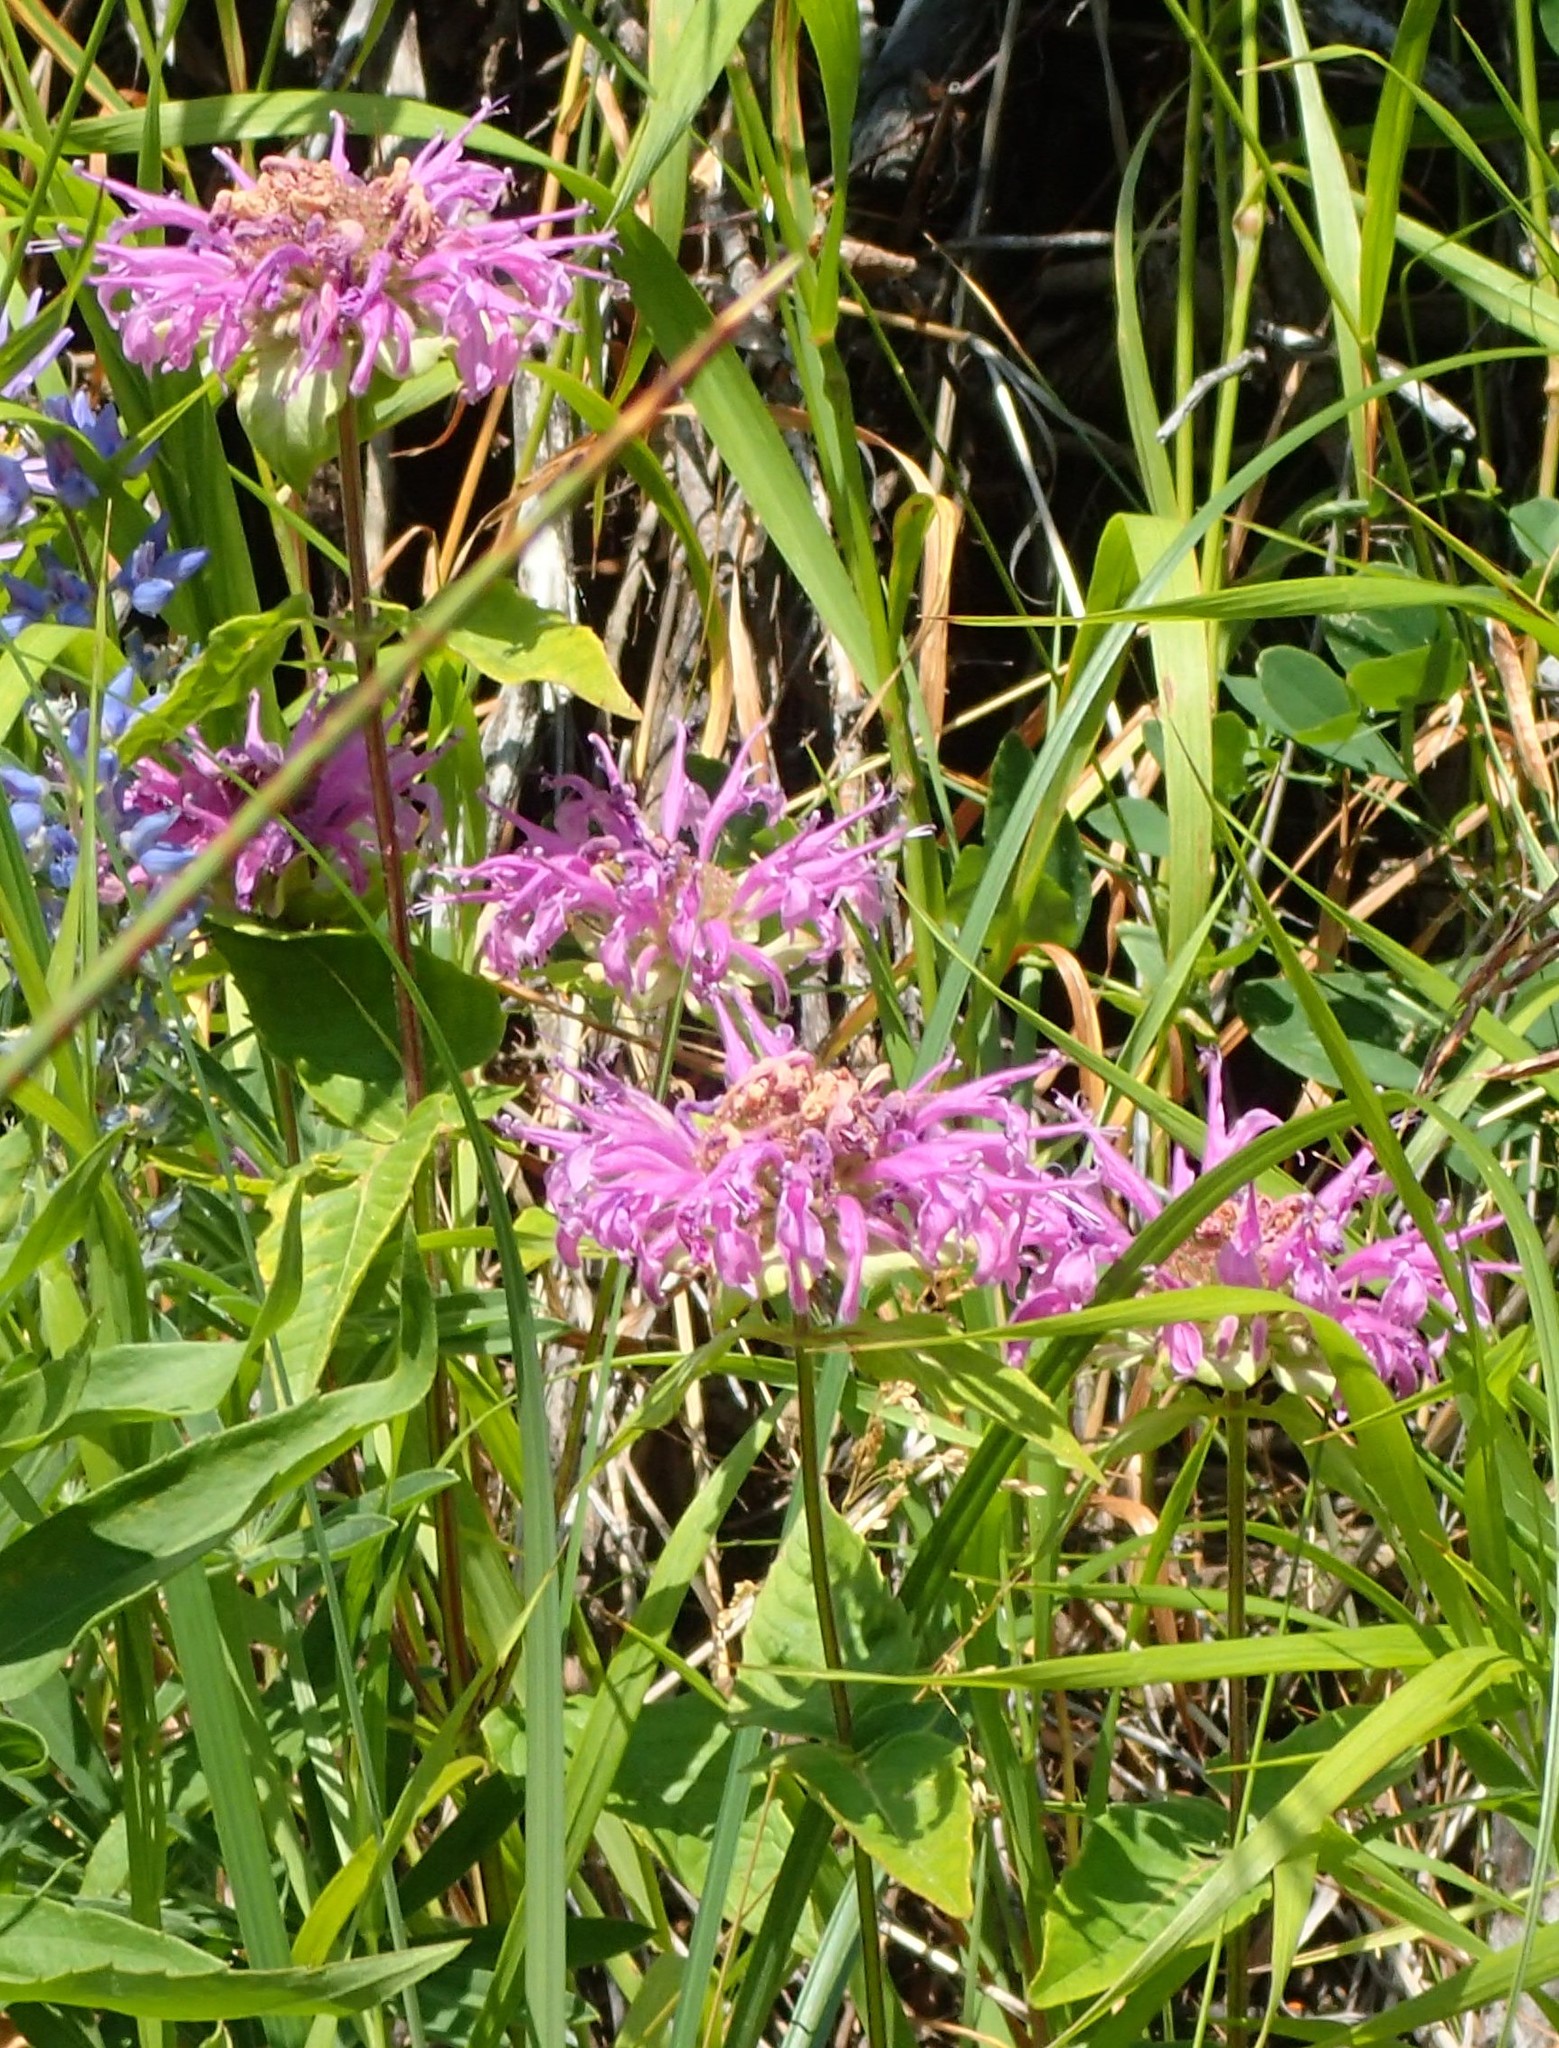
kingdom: Plantae
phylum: Tracheophyta
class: Magnoliopsida
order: Lamiales
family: Lamiaceae
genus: Monarda
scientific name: Monarda fistulosa
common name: Purple beebalm
